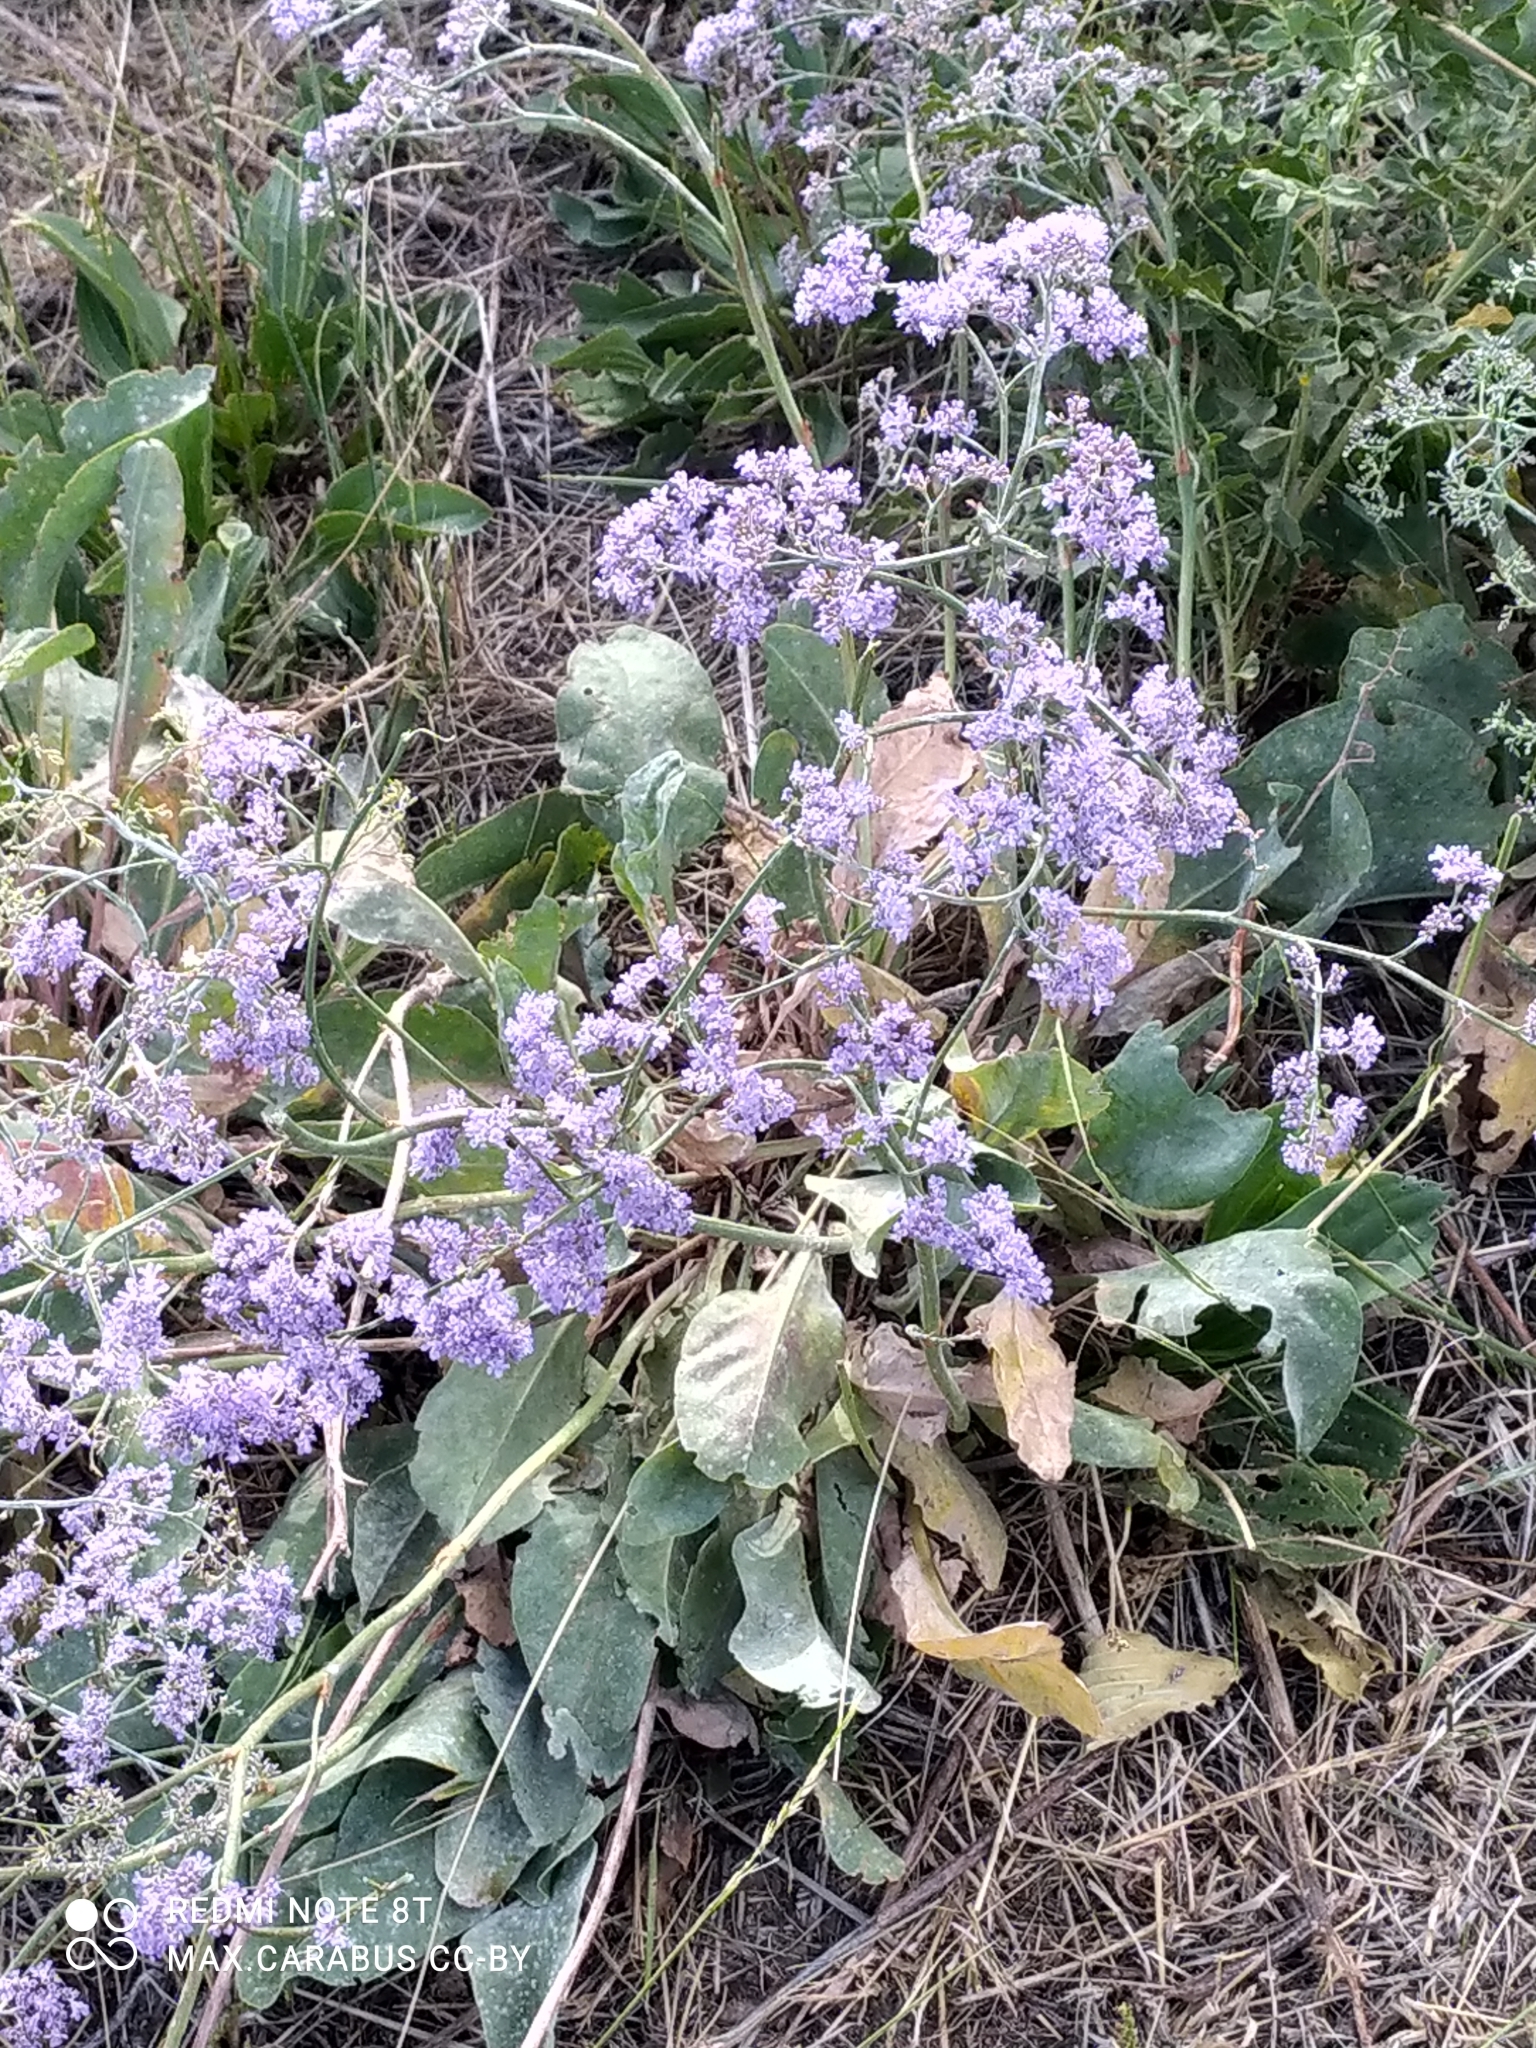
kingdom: Plantae
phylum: Tracheophyta
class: Magnoliopsida
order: Caryophyllales
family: Plumbaginaceae
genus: Limonium
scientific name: Limonium gmelini
